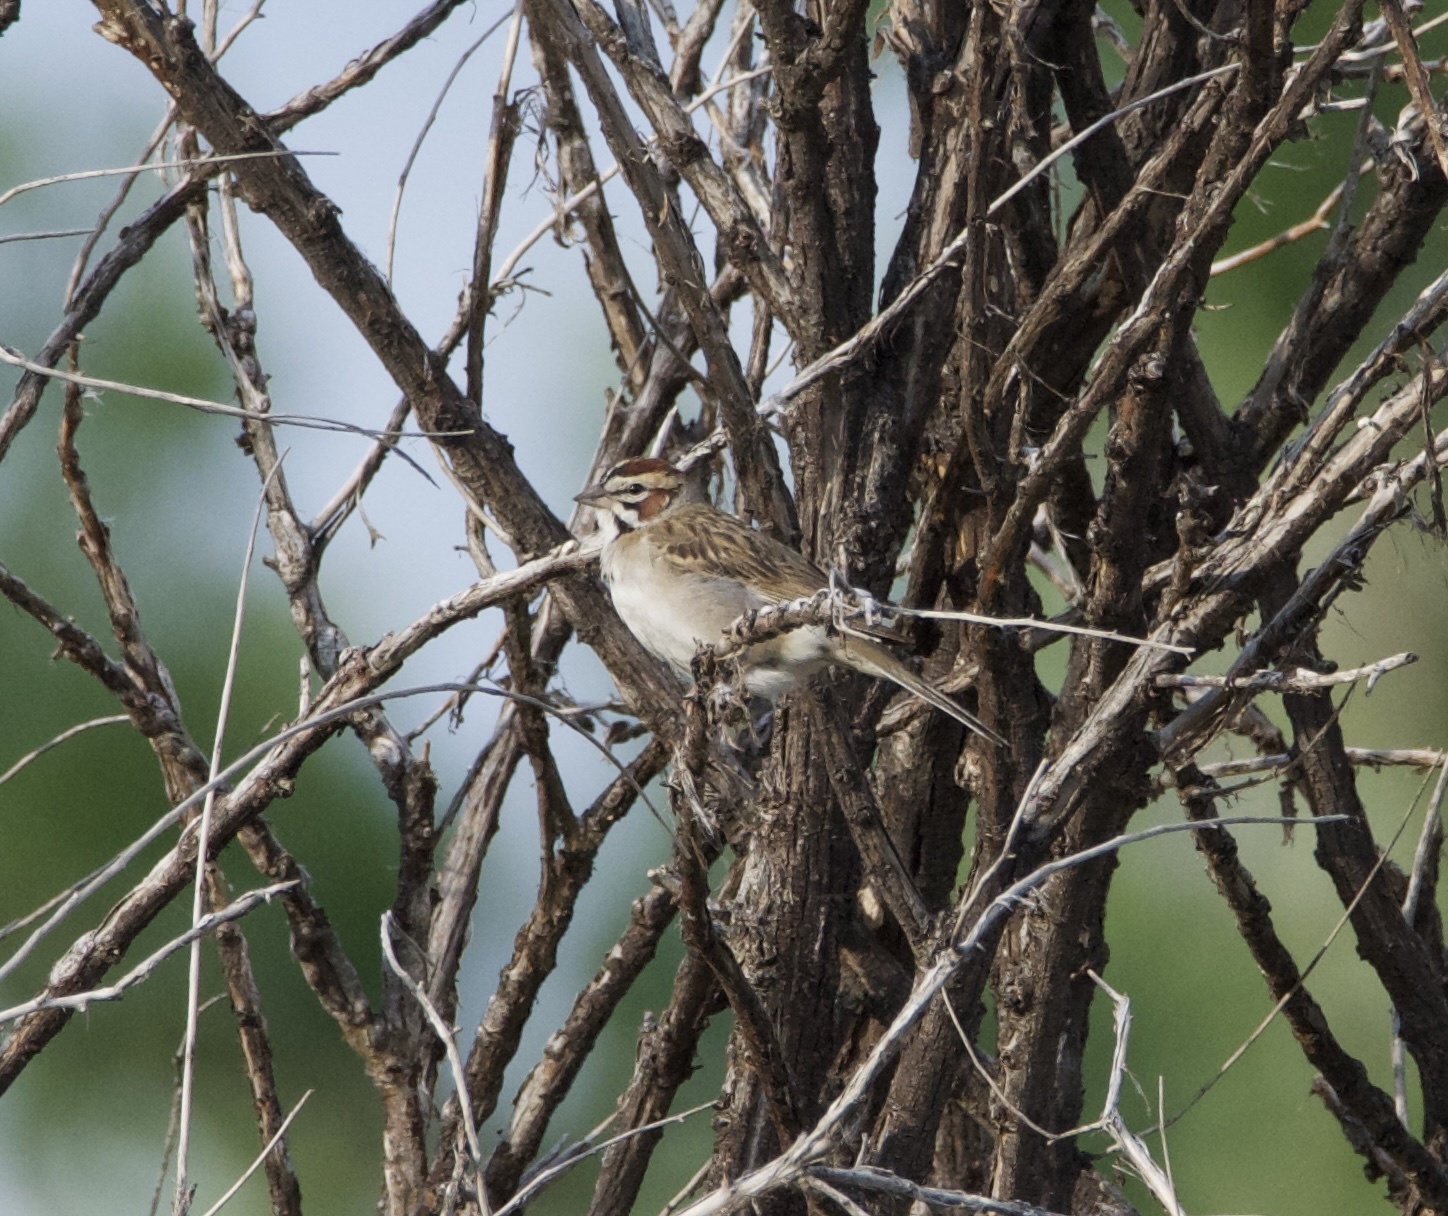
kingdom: Animalia
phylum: Chordata
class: Aves
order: Passeriformes
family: Passerellidae
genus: Chondestes
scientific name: Chondestes grammacus
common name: Lark sparrow
